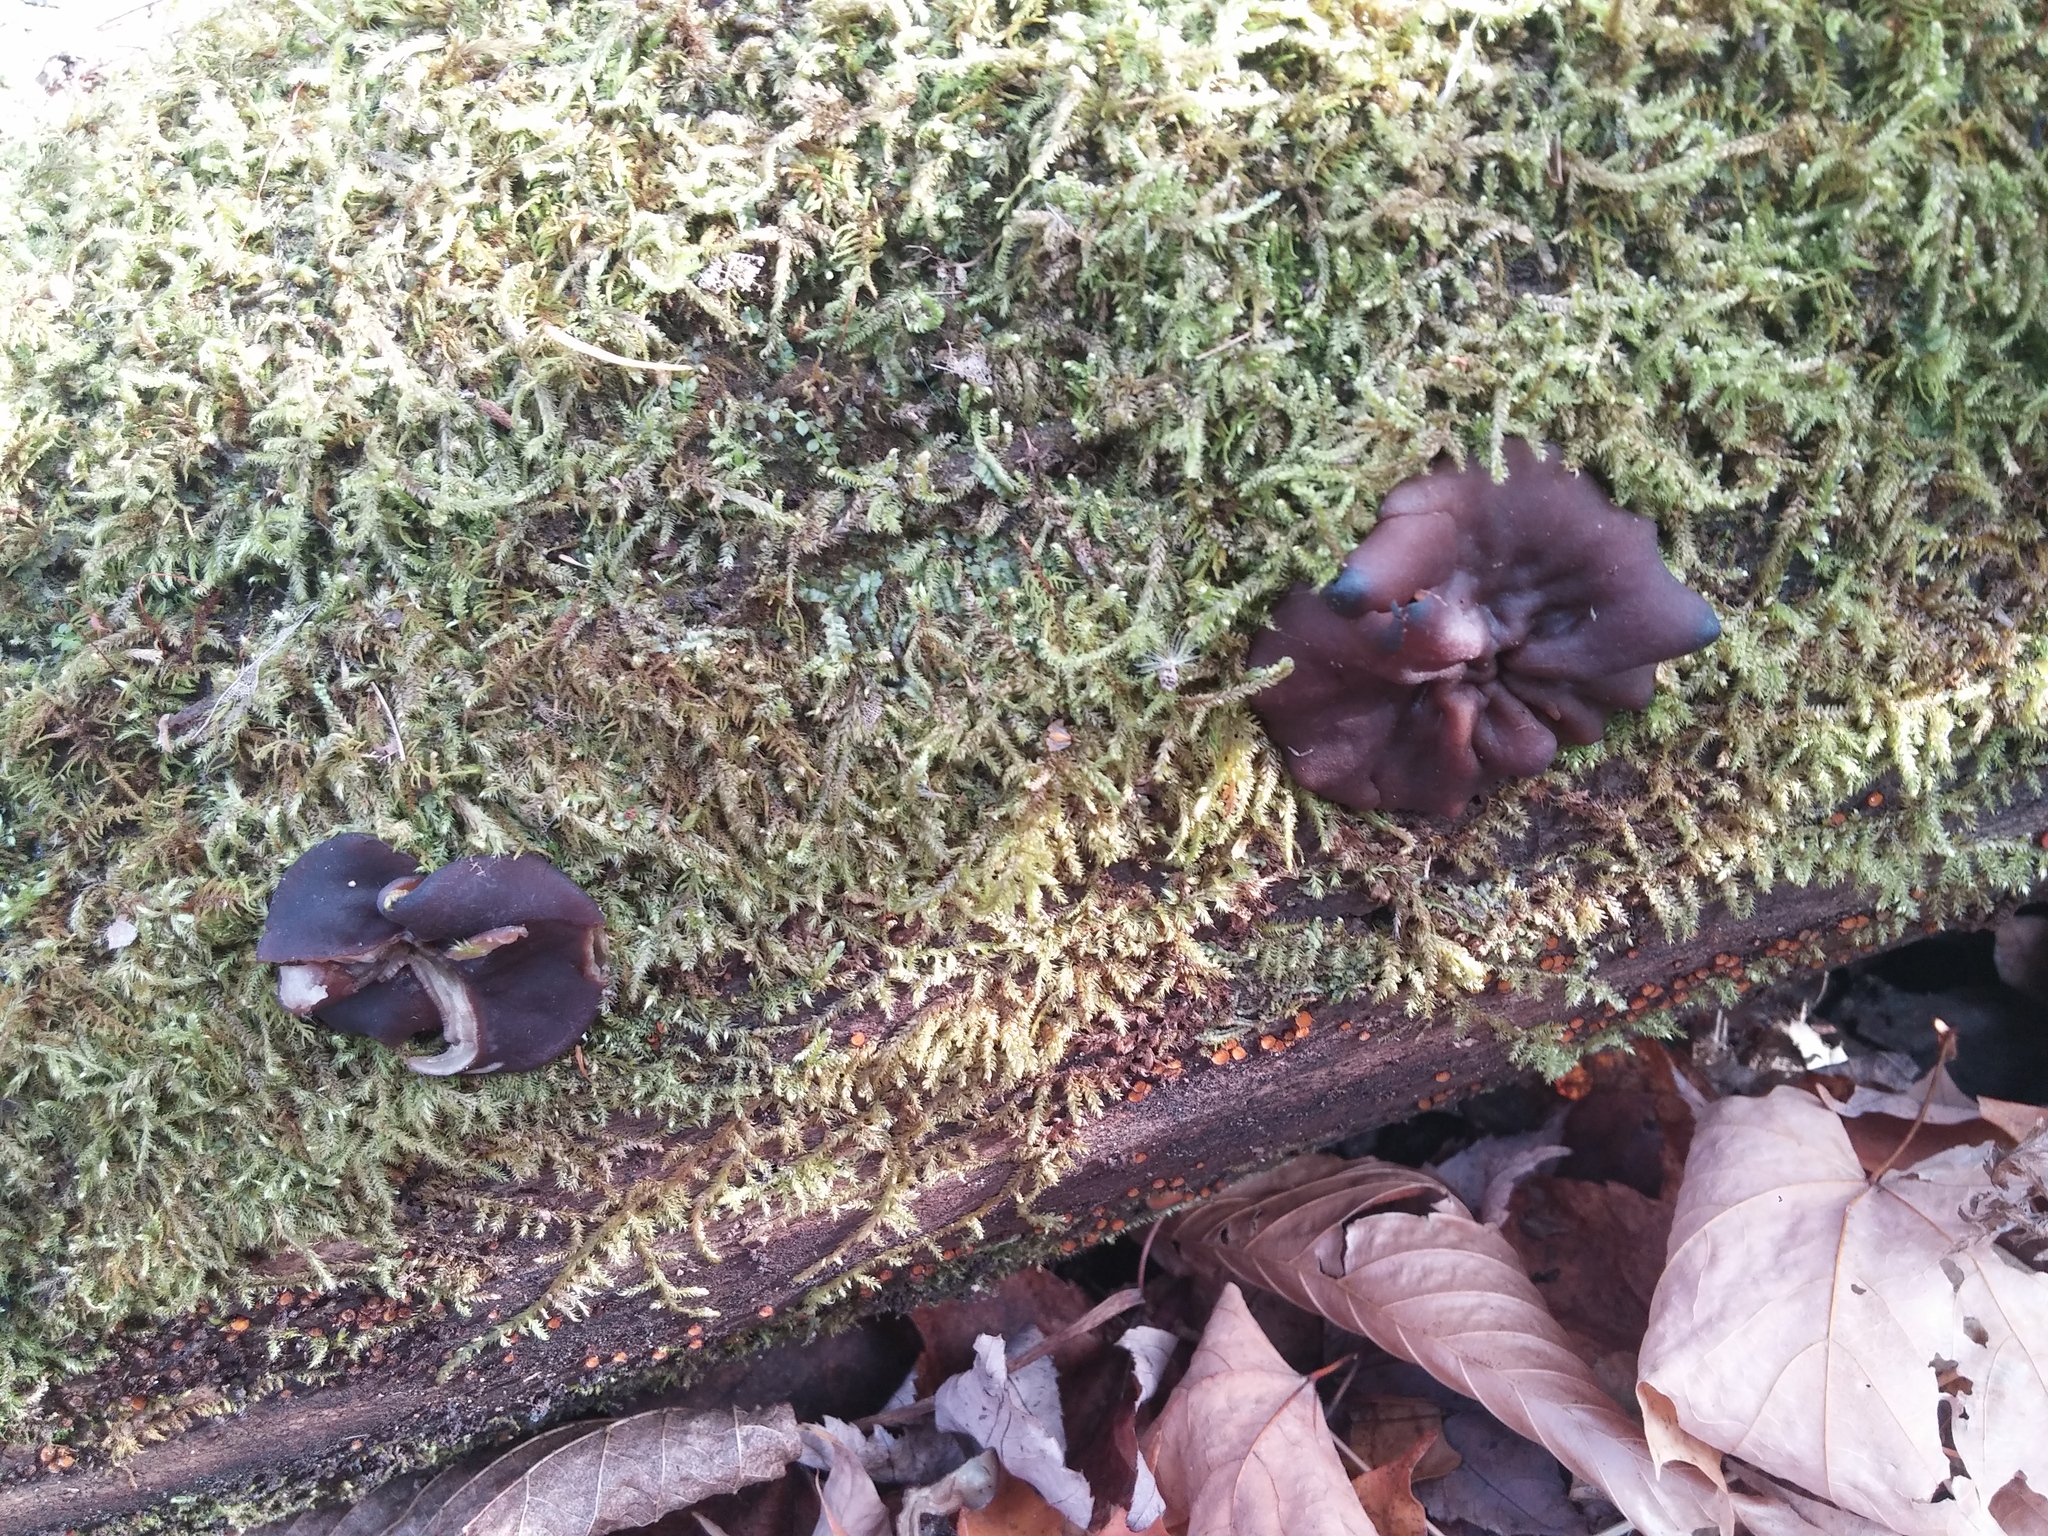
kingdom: Fungi
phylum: Ascomycota
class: Pezizomycetes
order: Pezizales
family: Pezizaceae
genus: Pachyella
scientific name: Pachyella clypeata
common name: Copper penny fungus
